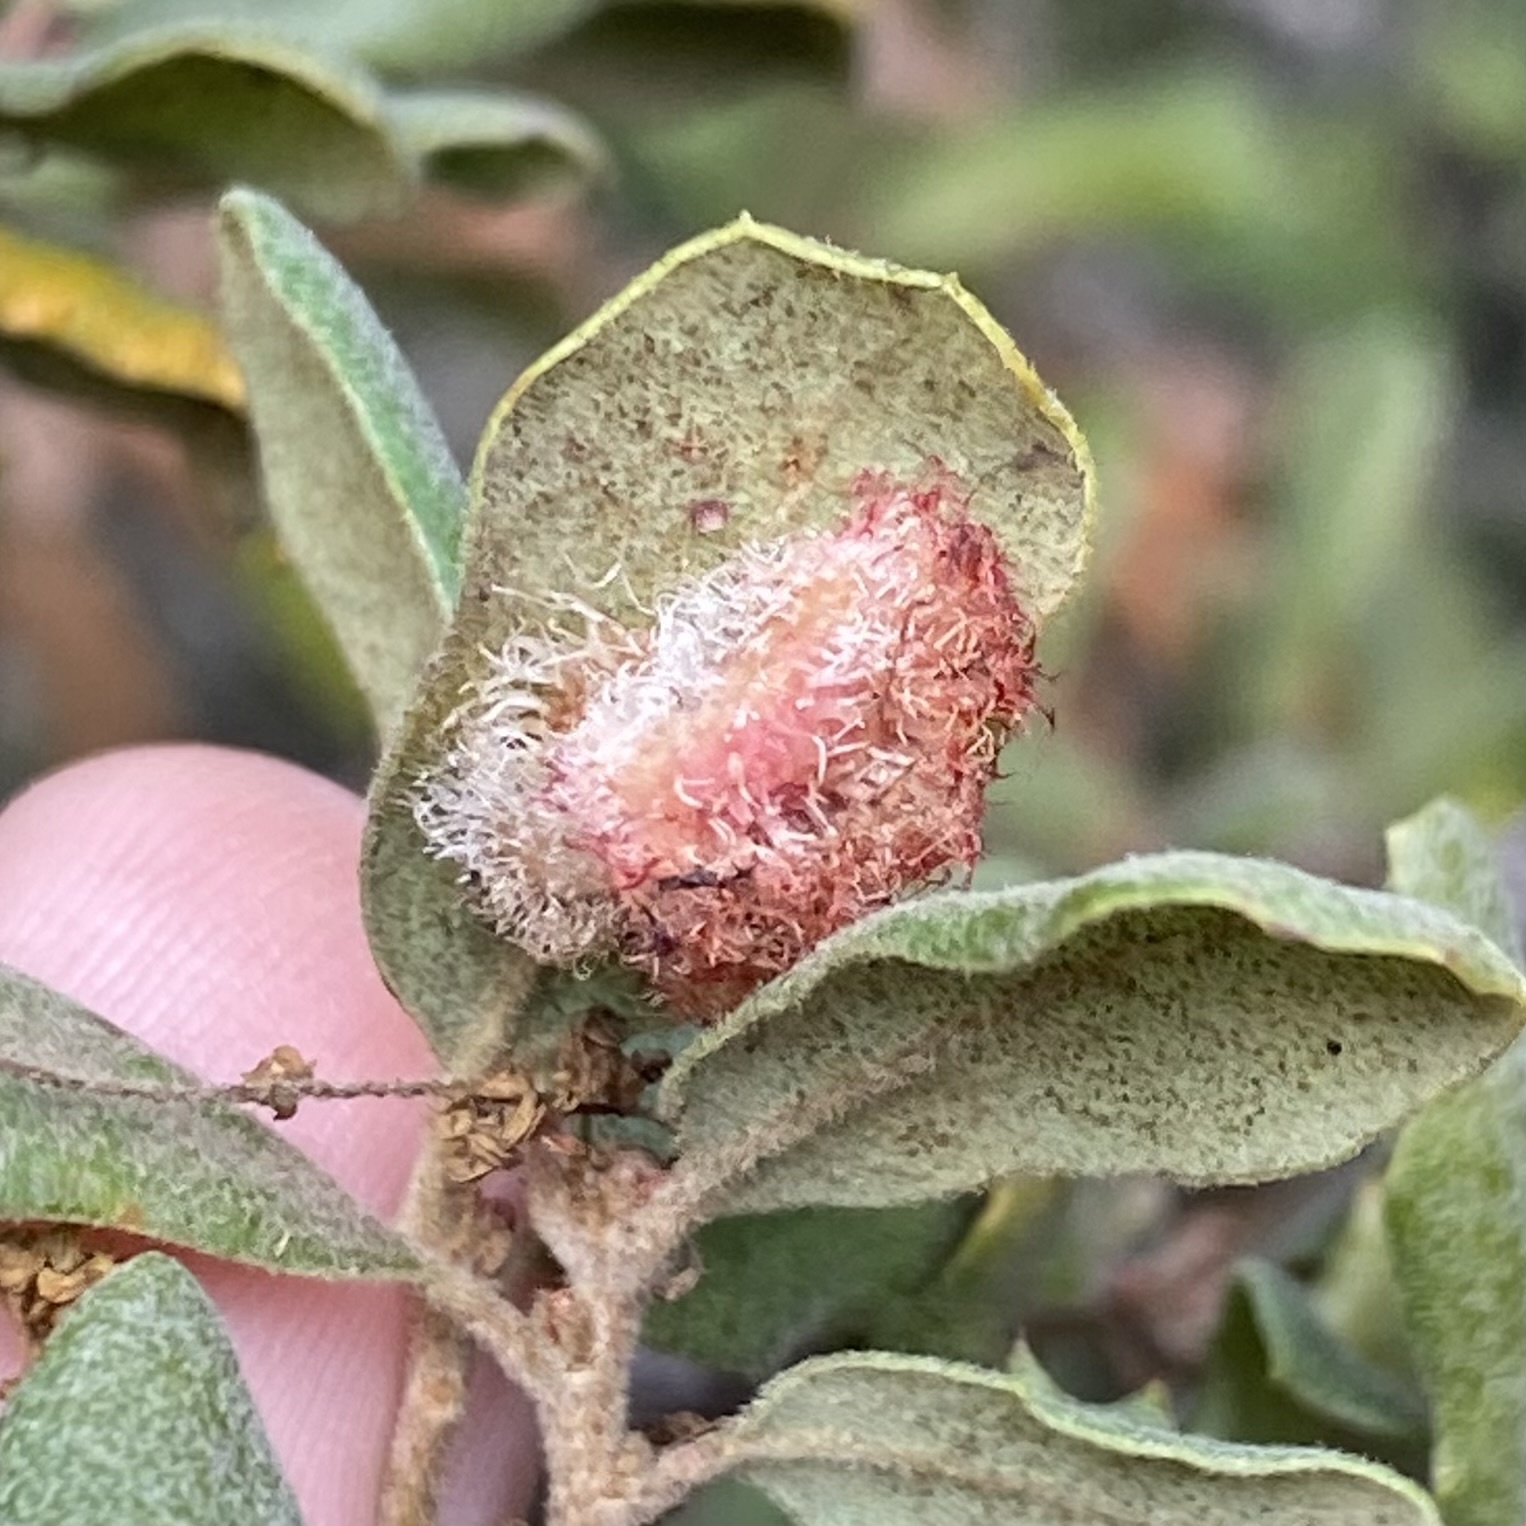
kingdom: Animalia
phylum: Arthropoda
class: Insecta
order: Hymenoptera
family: Cynipidae
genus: Andricus
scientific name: Andricus
